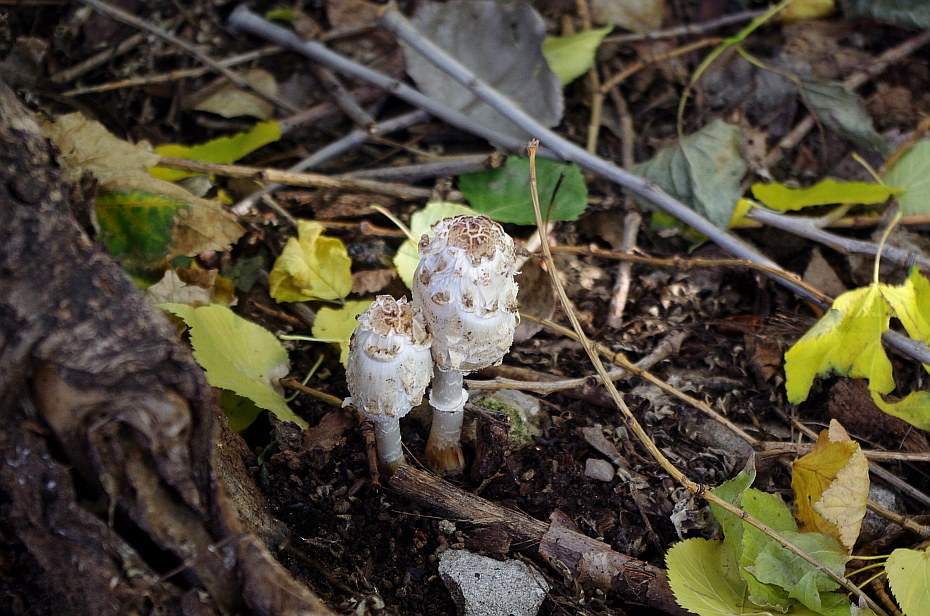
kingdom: Fungi
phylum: Basidiomycota
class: Agaricomycetes
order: Agaricales
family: Agaricaceae
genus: Coprinus
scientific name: Coprinus comatus
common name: Lawyer's wig
